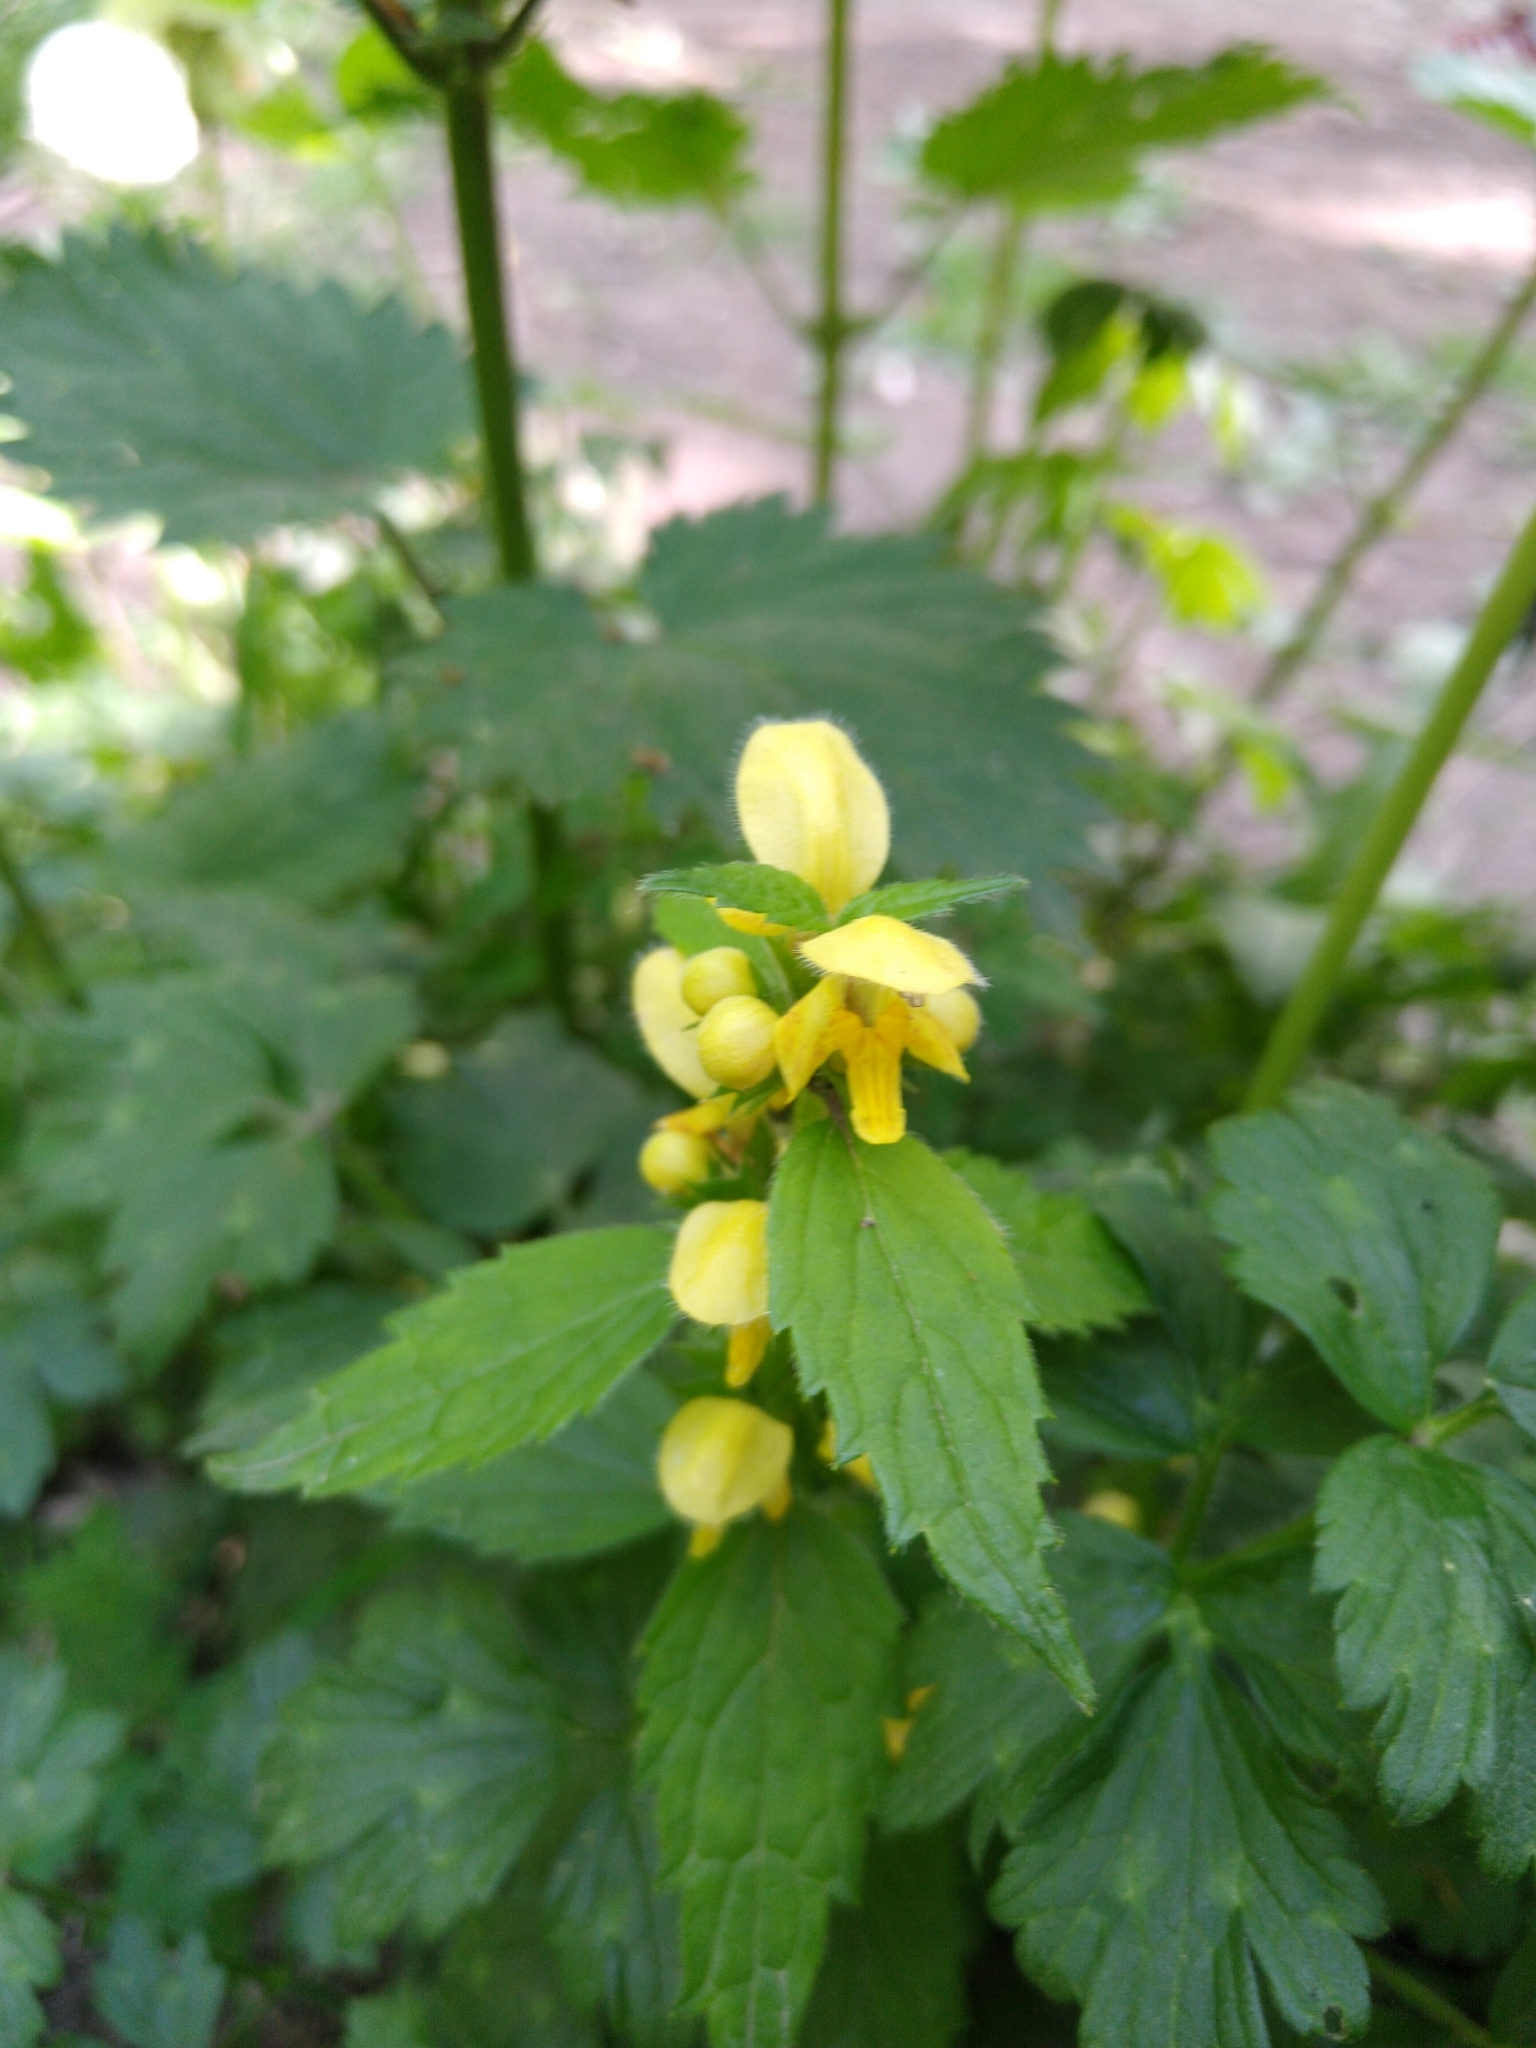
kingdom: Plantae
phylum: Tracheophyta
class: Magnoliopsida
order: Lamiales
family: Lamiaceae
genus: Lamium
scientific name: Lamium galeobdolon
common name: Yellow archangel
